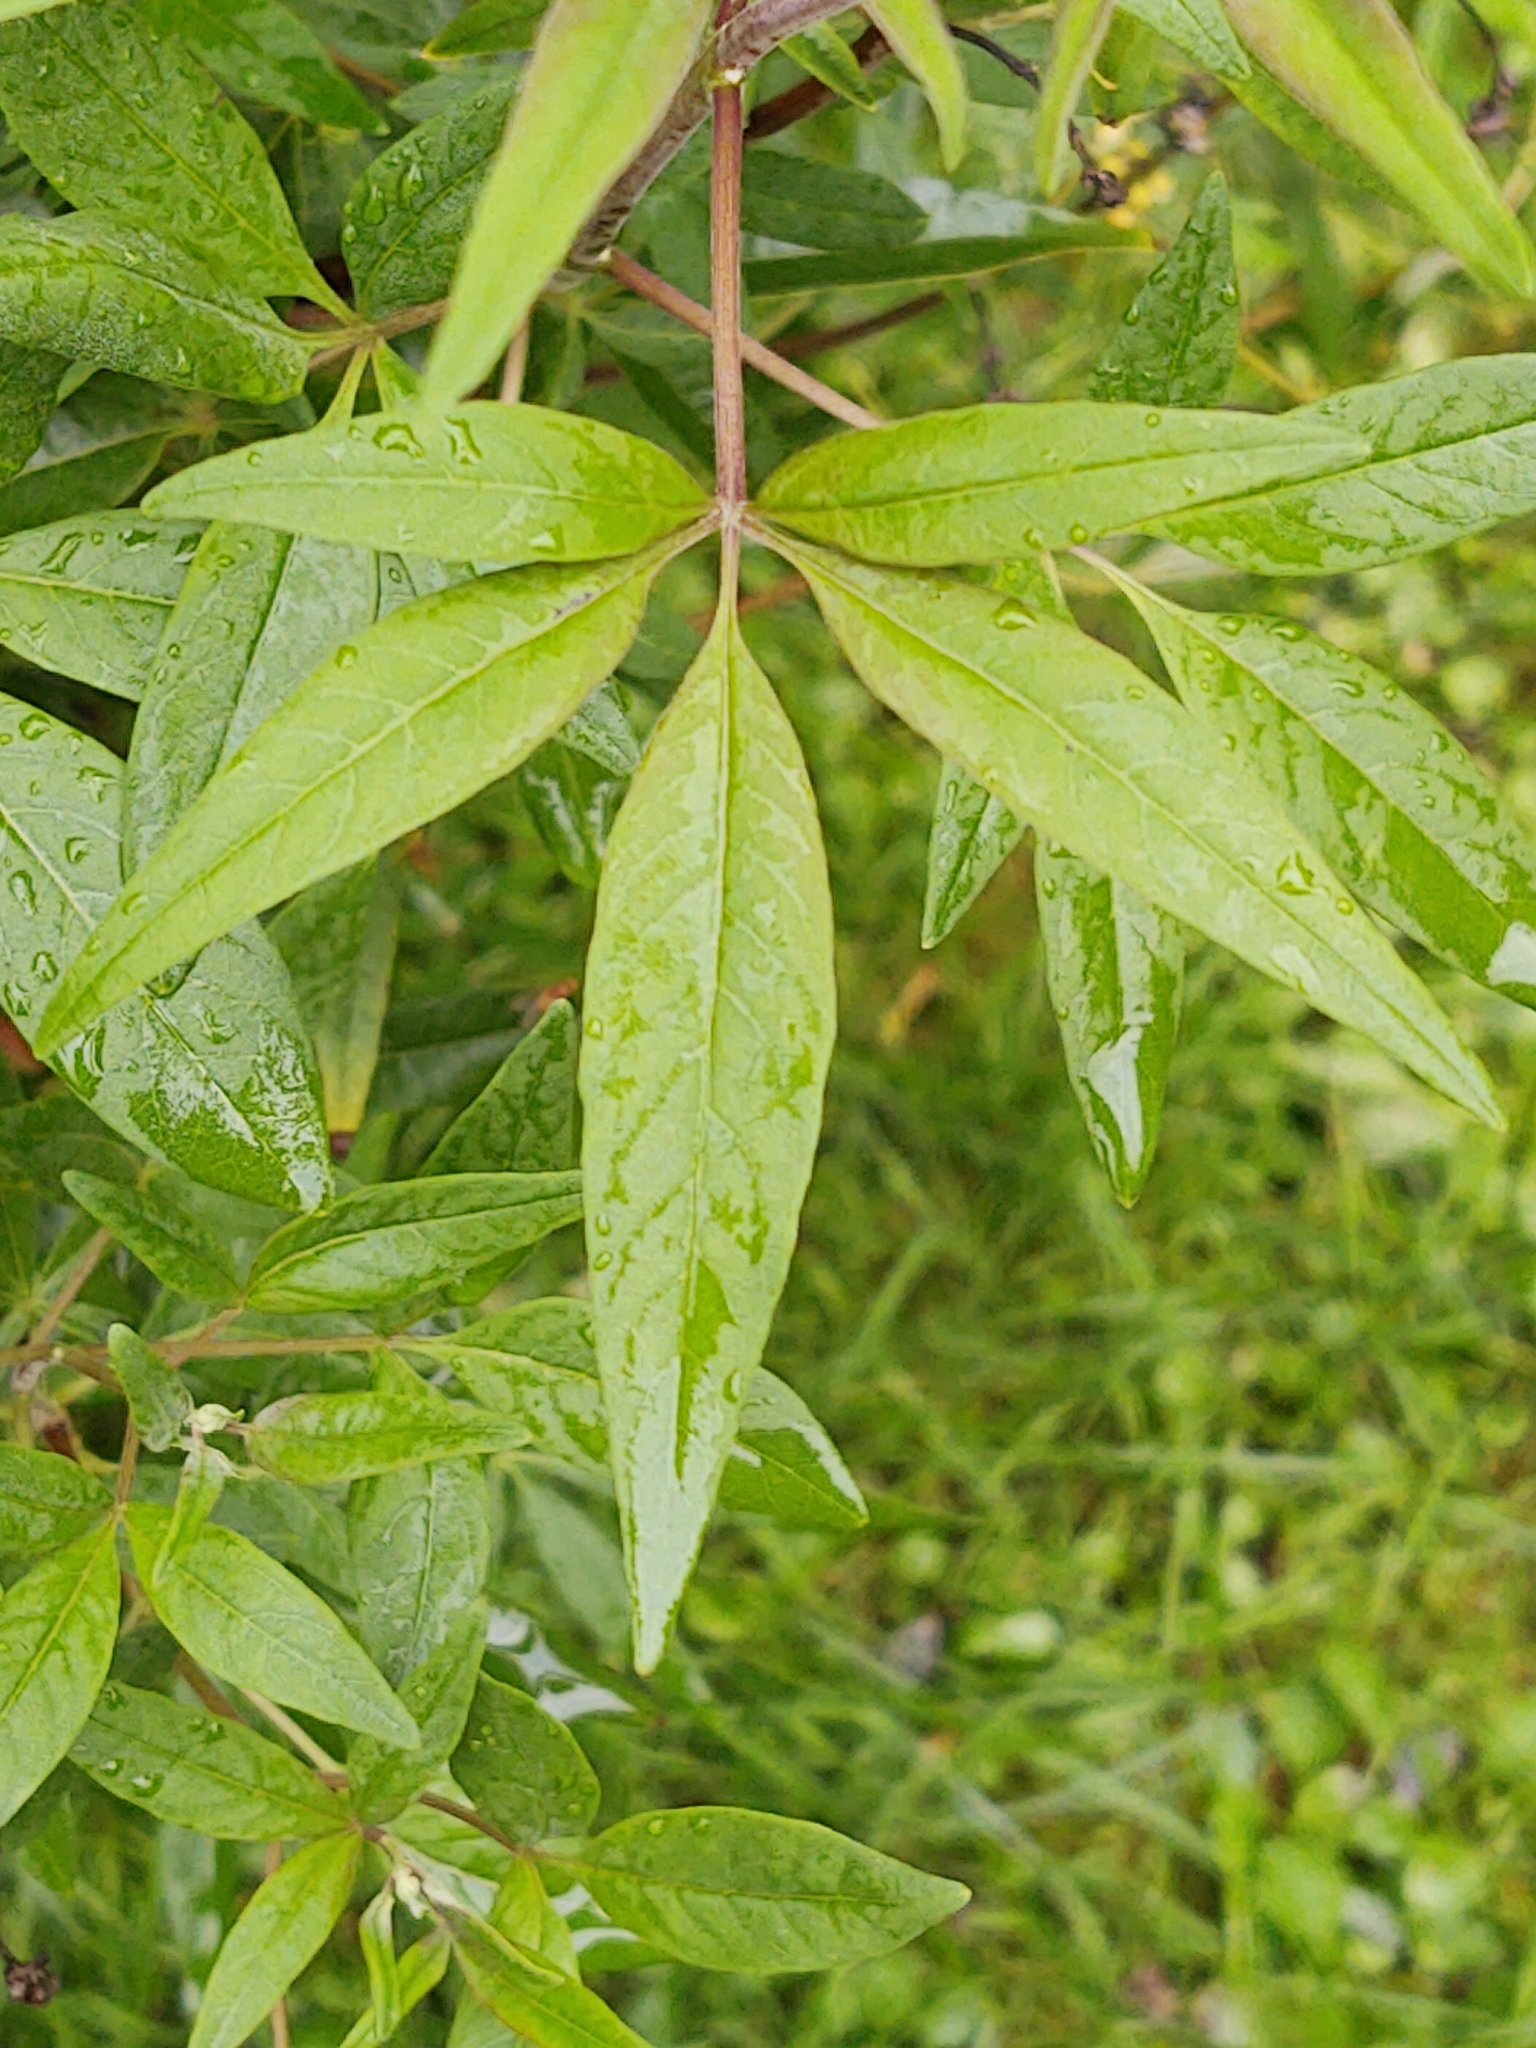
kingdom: Plantae
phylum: Tracheophyta
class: Magnoliopsida
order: Lamiales
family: Lamiaceae
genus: Vitex
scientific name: Vitex agnus-castus
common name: Chasteberry
